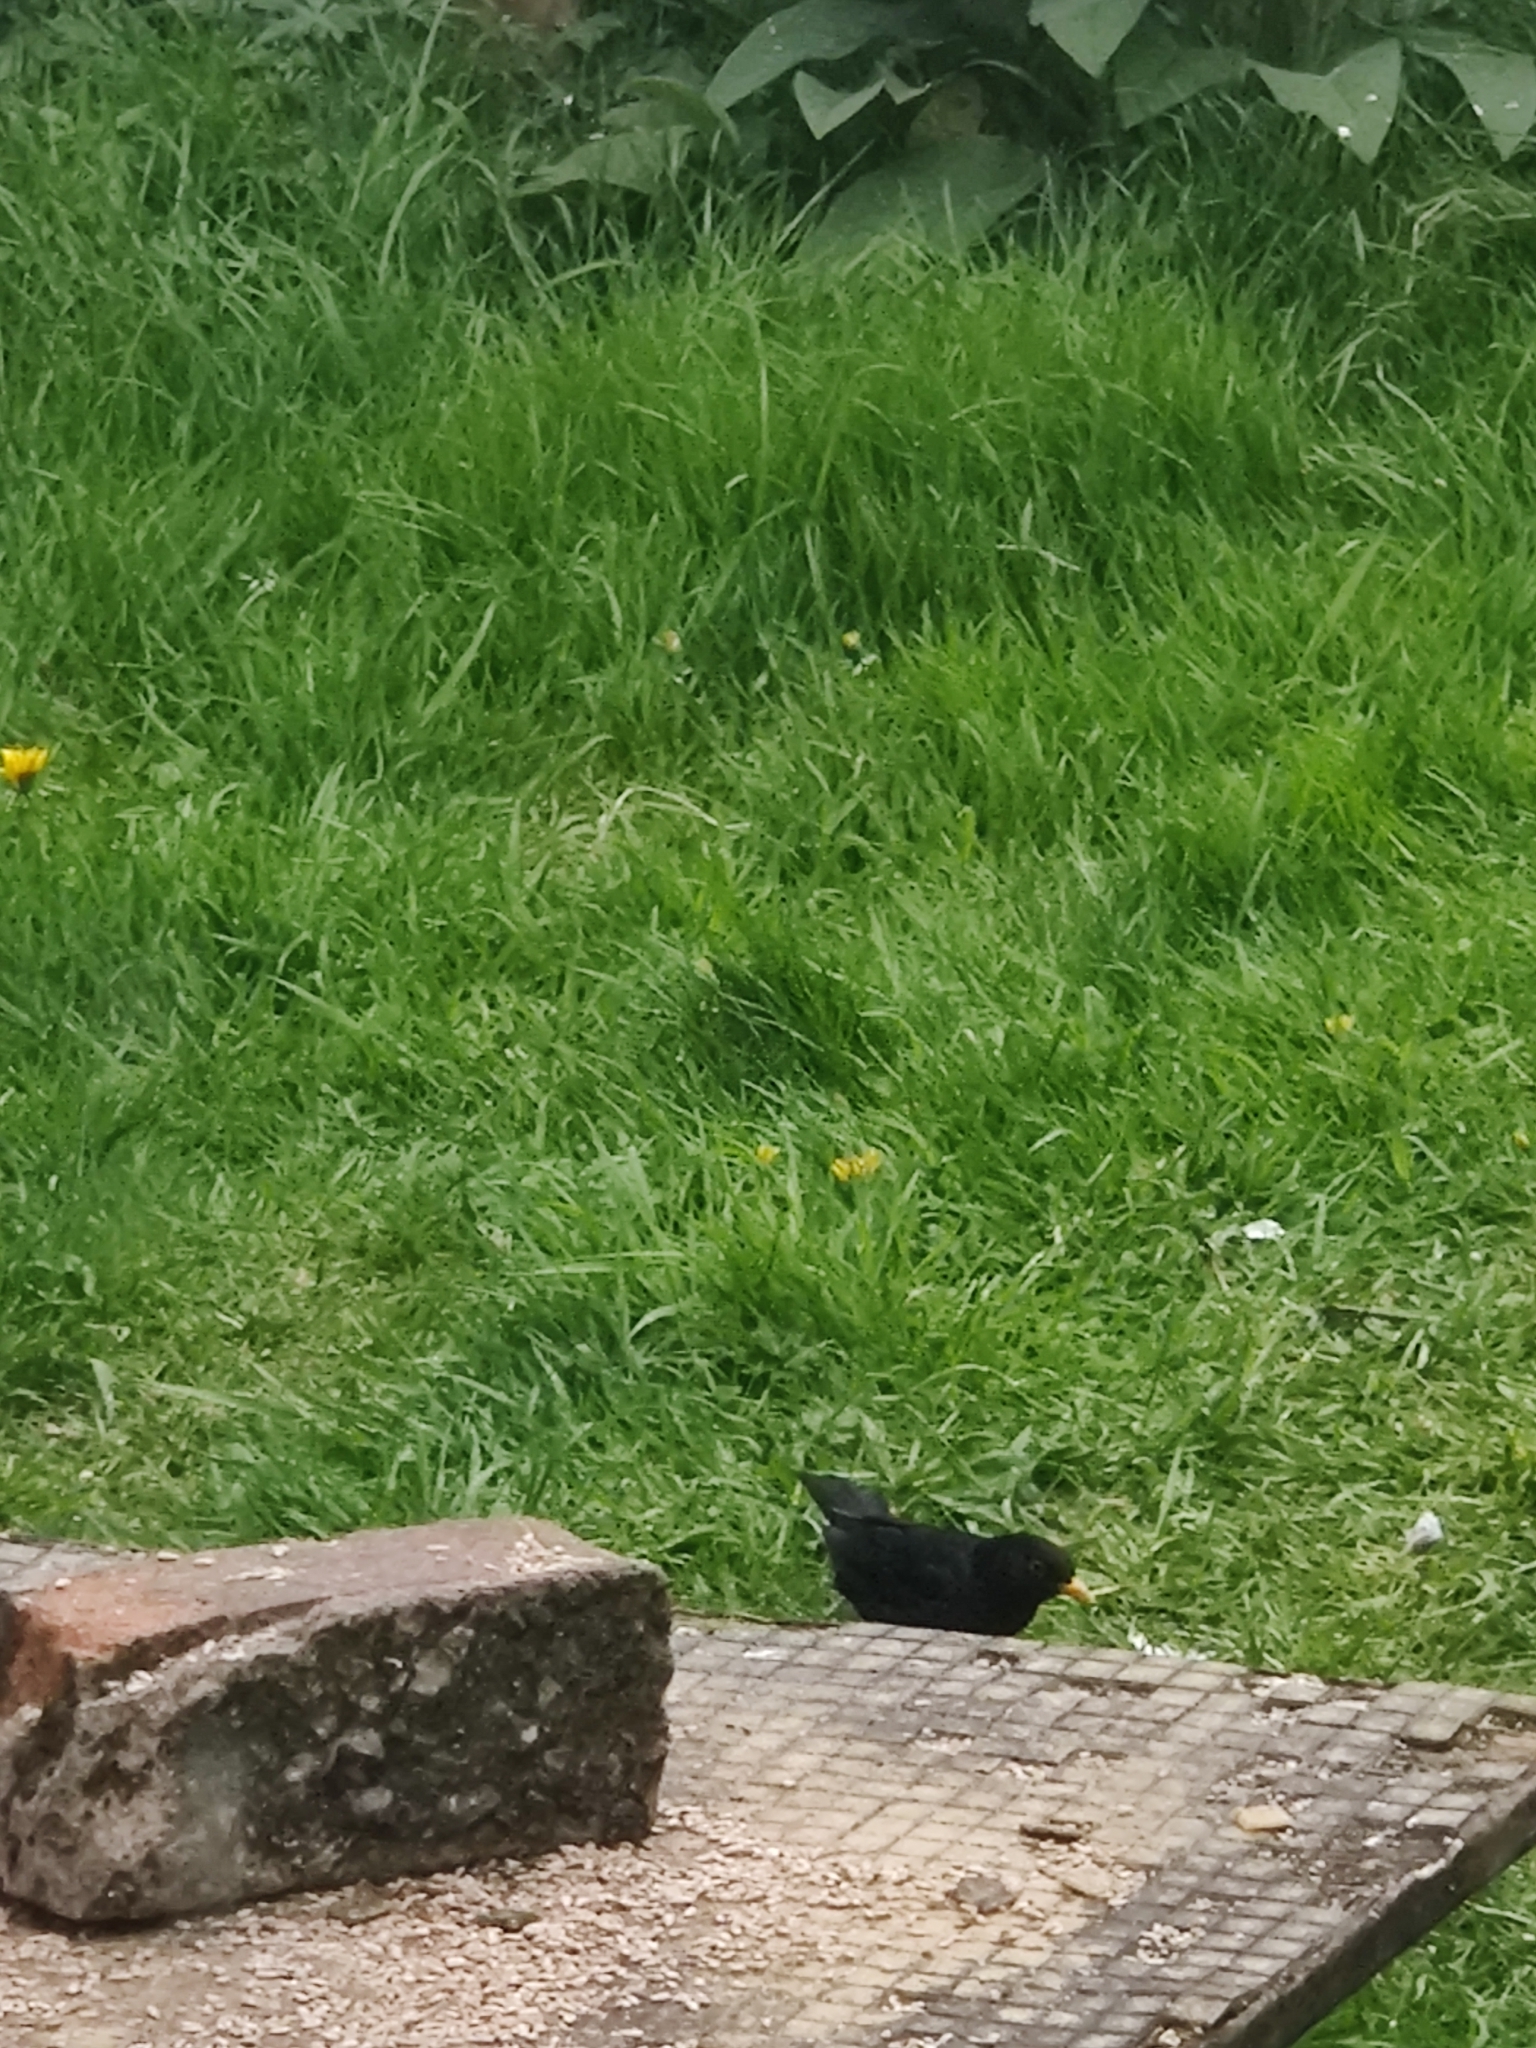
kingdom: Animalia
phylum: Chordata
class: Aves
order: Passeriformes
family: Turdidae
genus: Turdus
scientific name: Turdus merula
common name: Common blackbird
